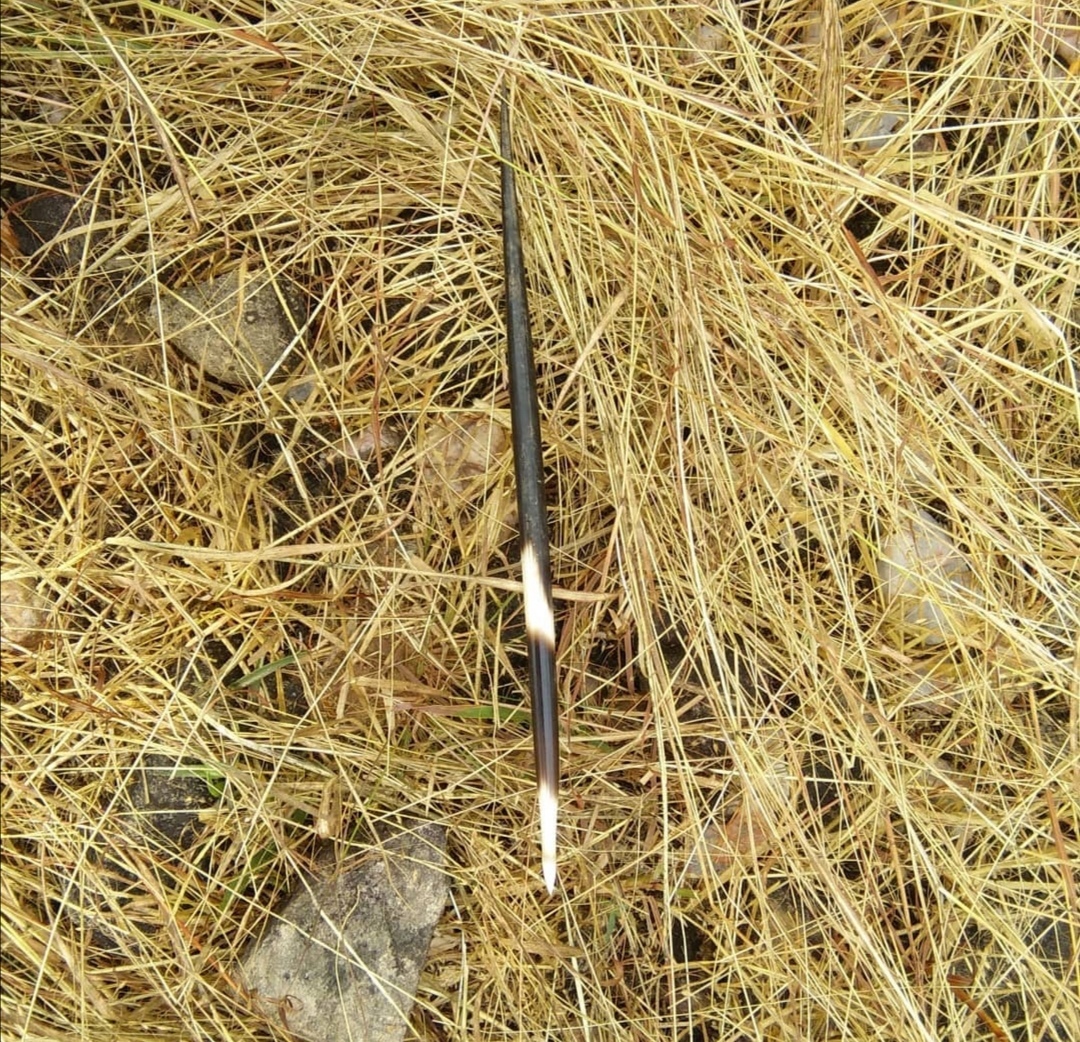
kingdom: Animalia
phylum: Chordata
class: Mammalia
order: Rodentia
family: Hystricidae
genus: Hystrix
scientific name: Hystrix indica
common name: Indian crested porcupine
